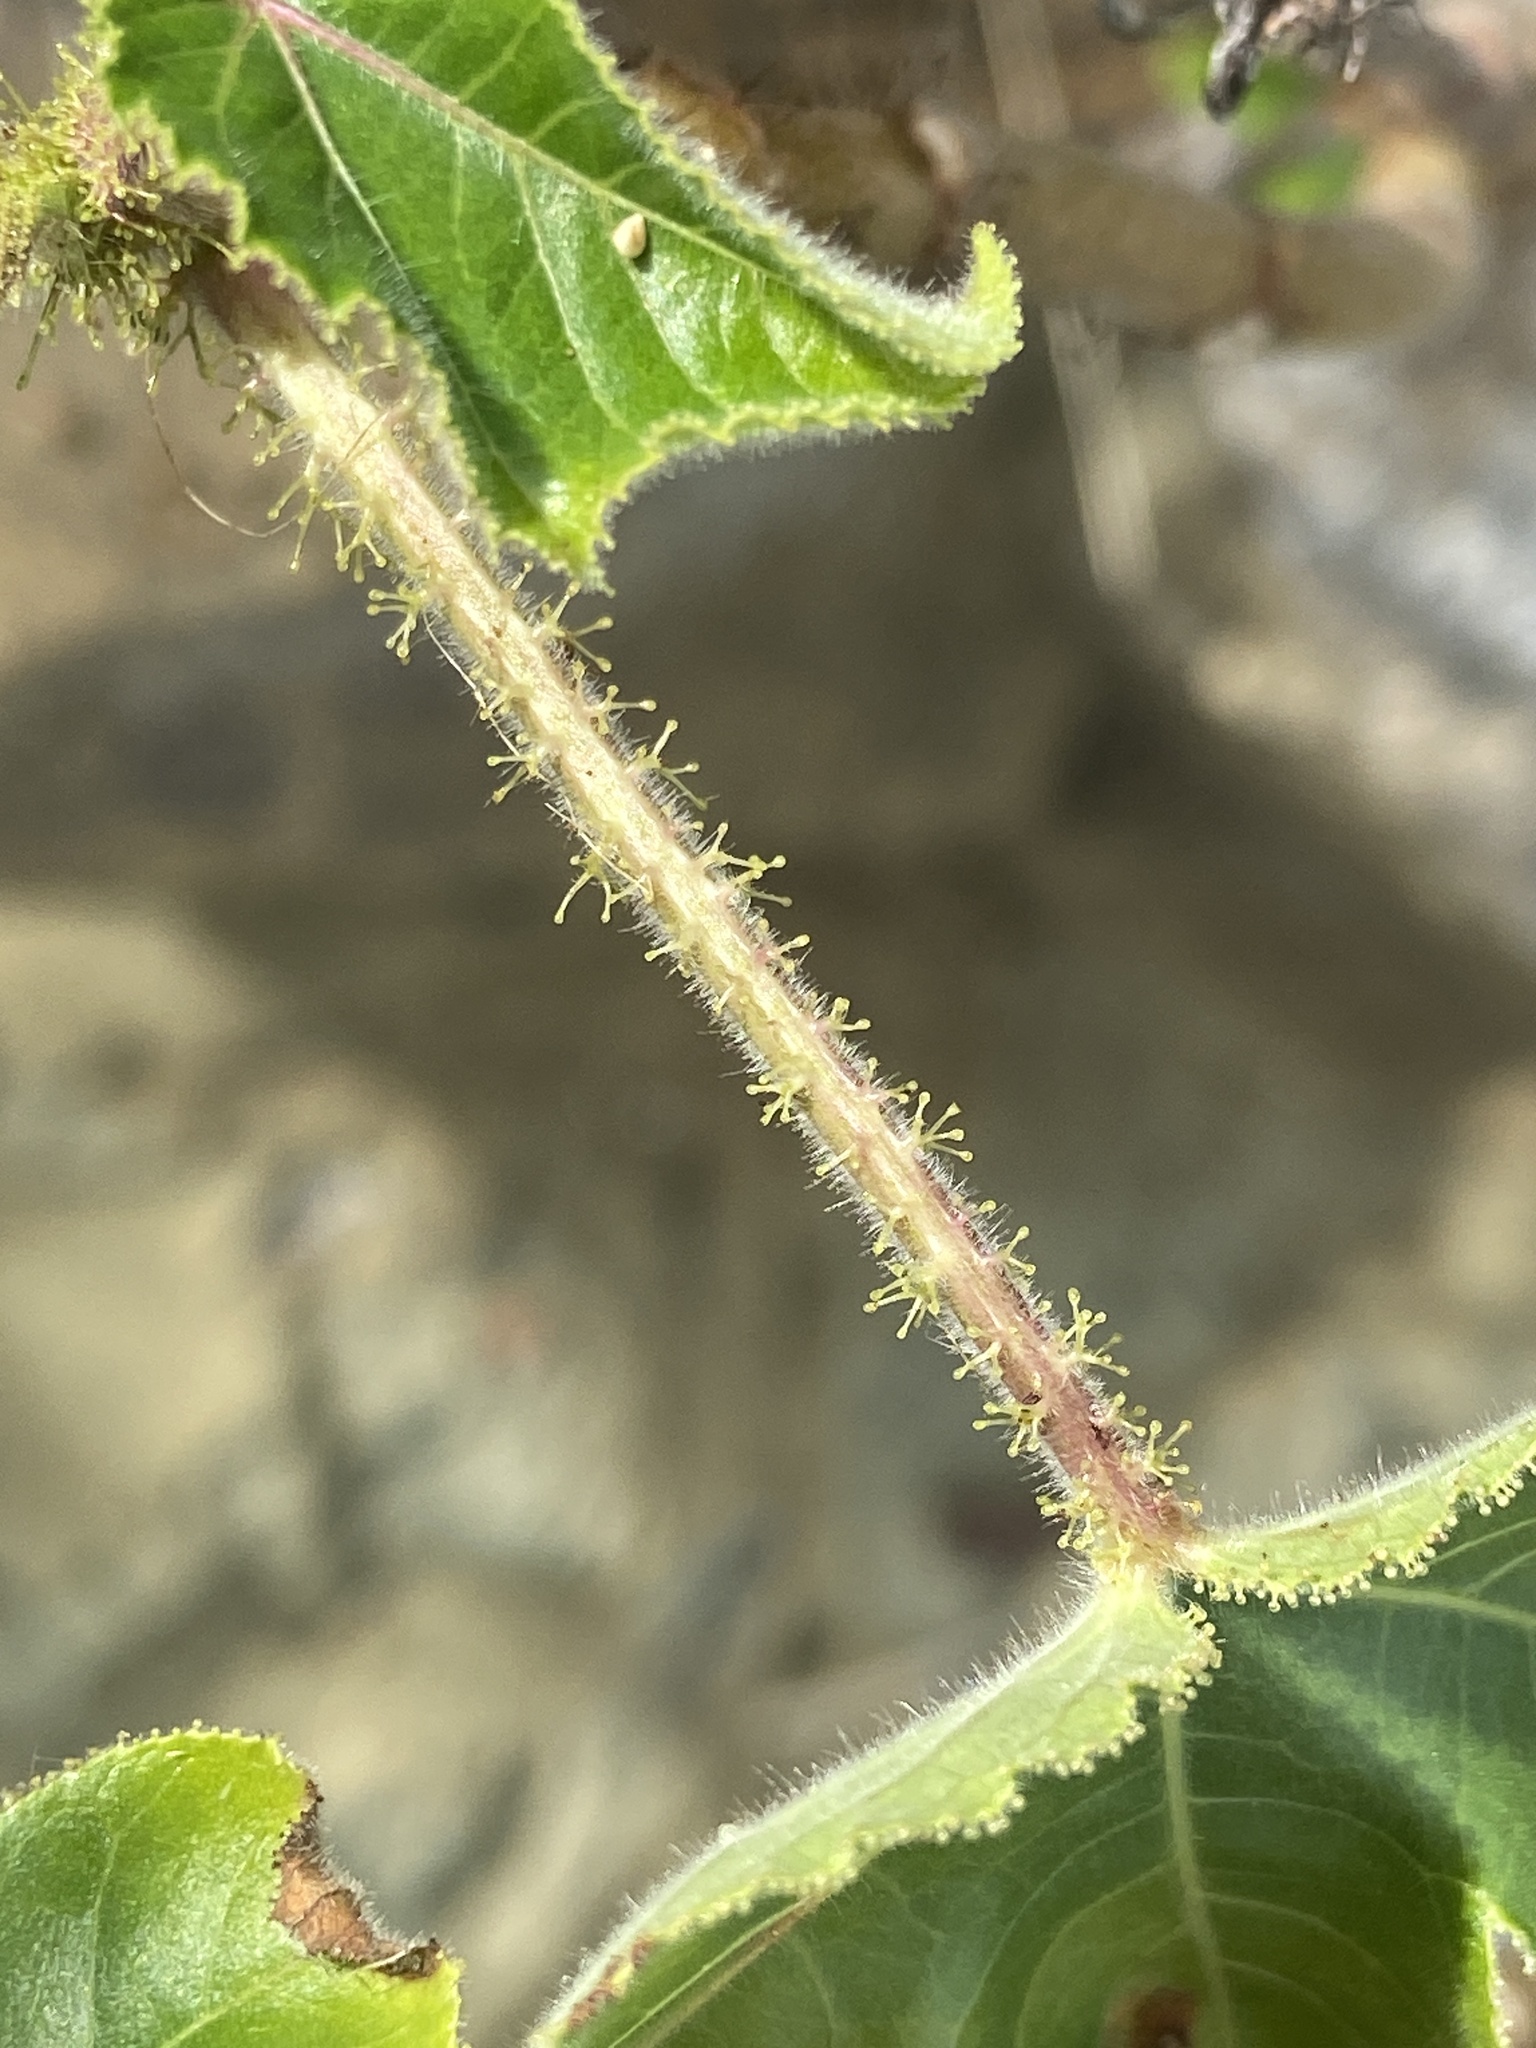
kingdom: Plantae
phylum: Tracheophyta
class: Magnoliopsida
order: Malpighiales
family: Euphorbiaceae
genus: Jatropha
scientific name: Jatropha gossypiifolia
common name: Bellyache bush
